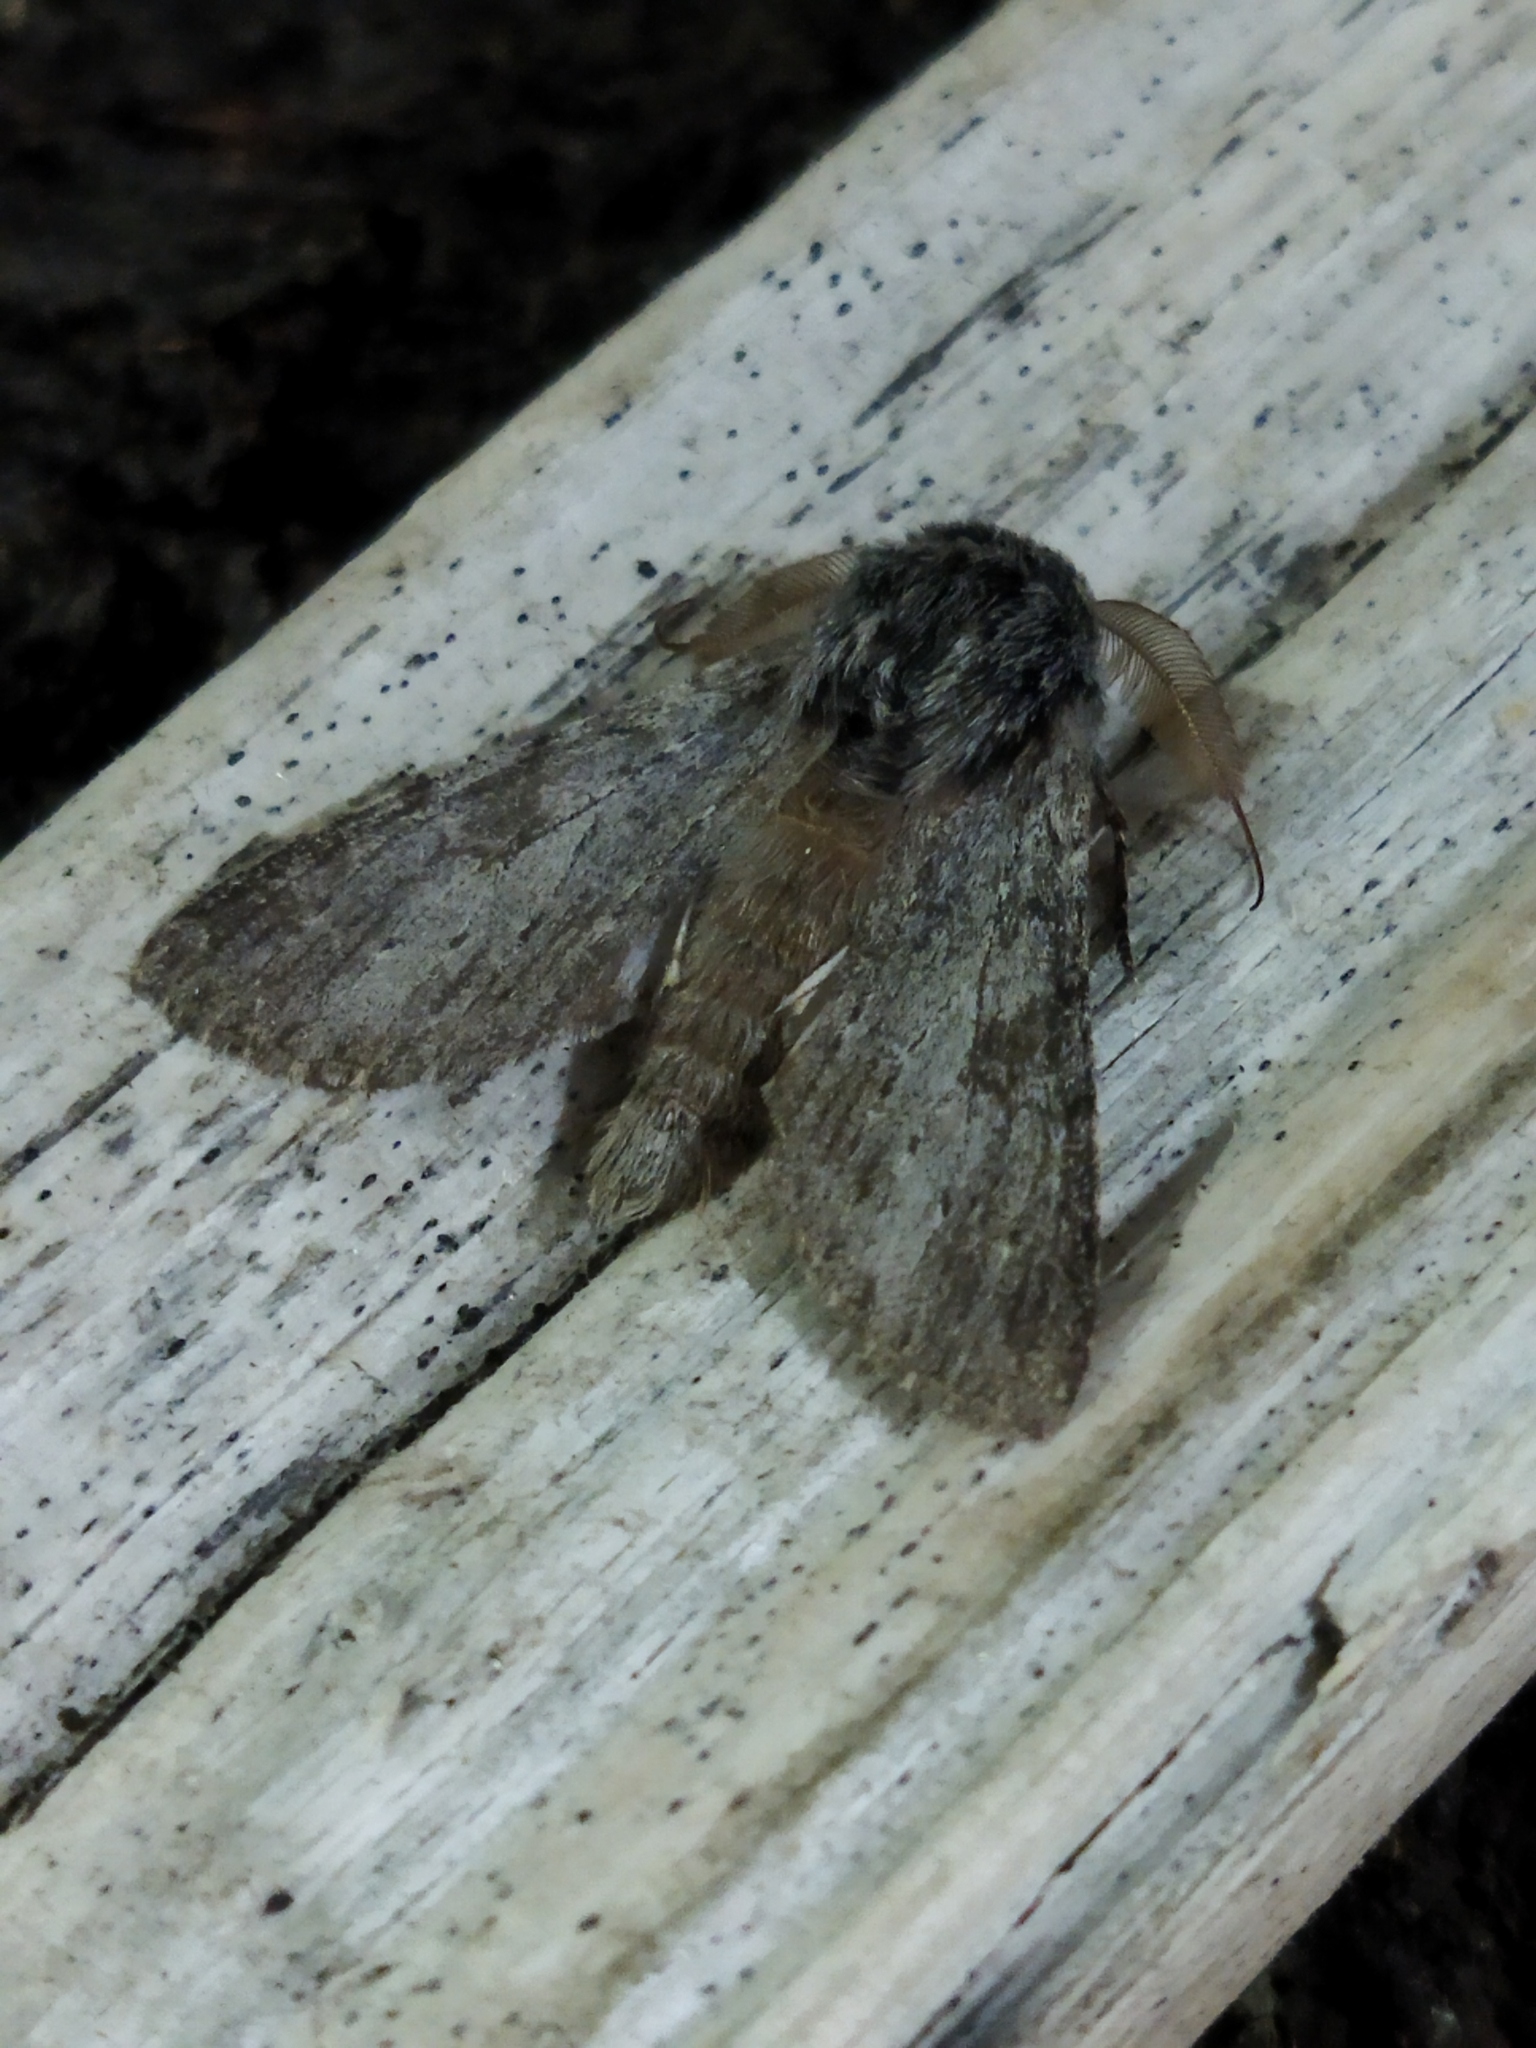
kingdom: Animalia
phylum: Arthropoda
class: Insecta
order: Lepidoptera
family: Notodontidae
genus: Dicranura
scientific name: Dicranura ulmi
